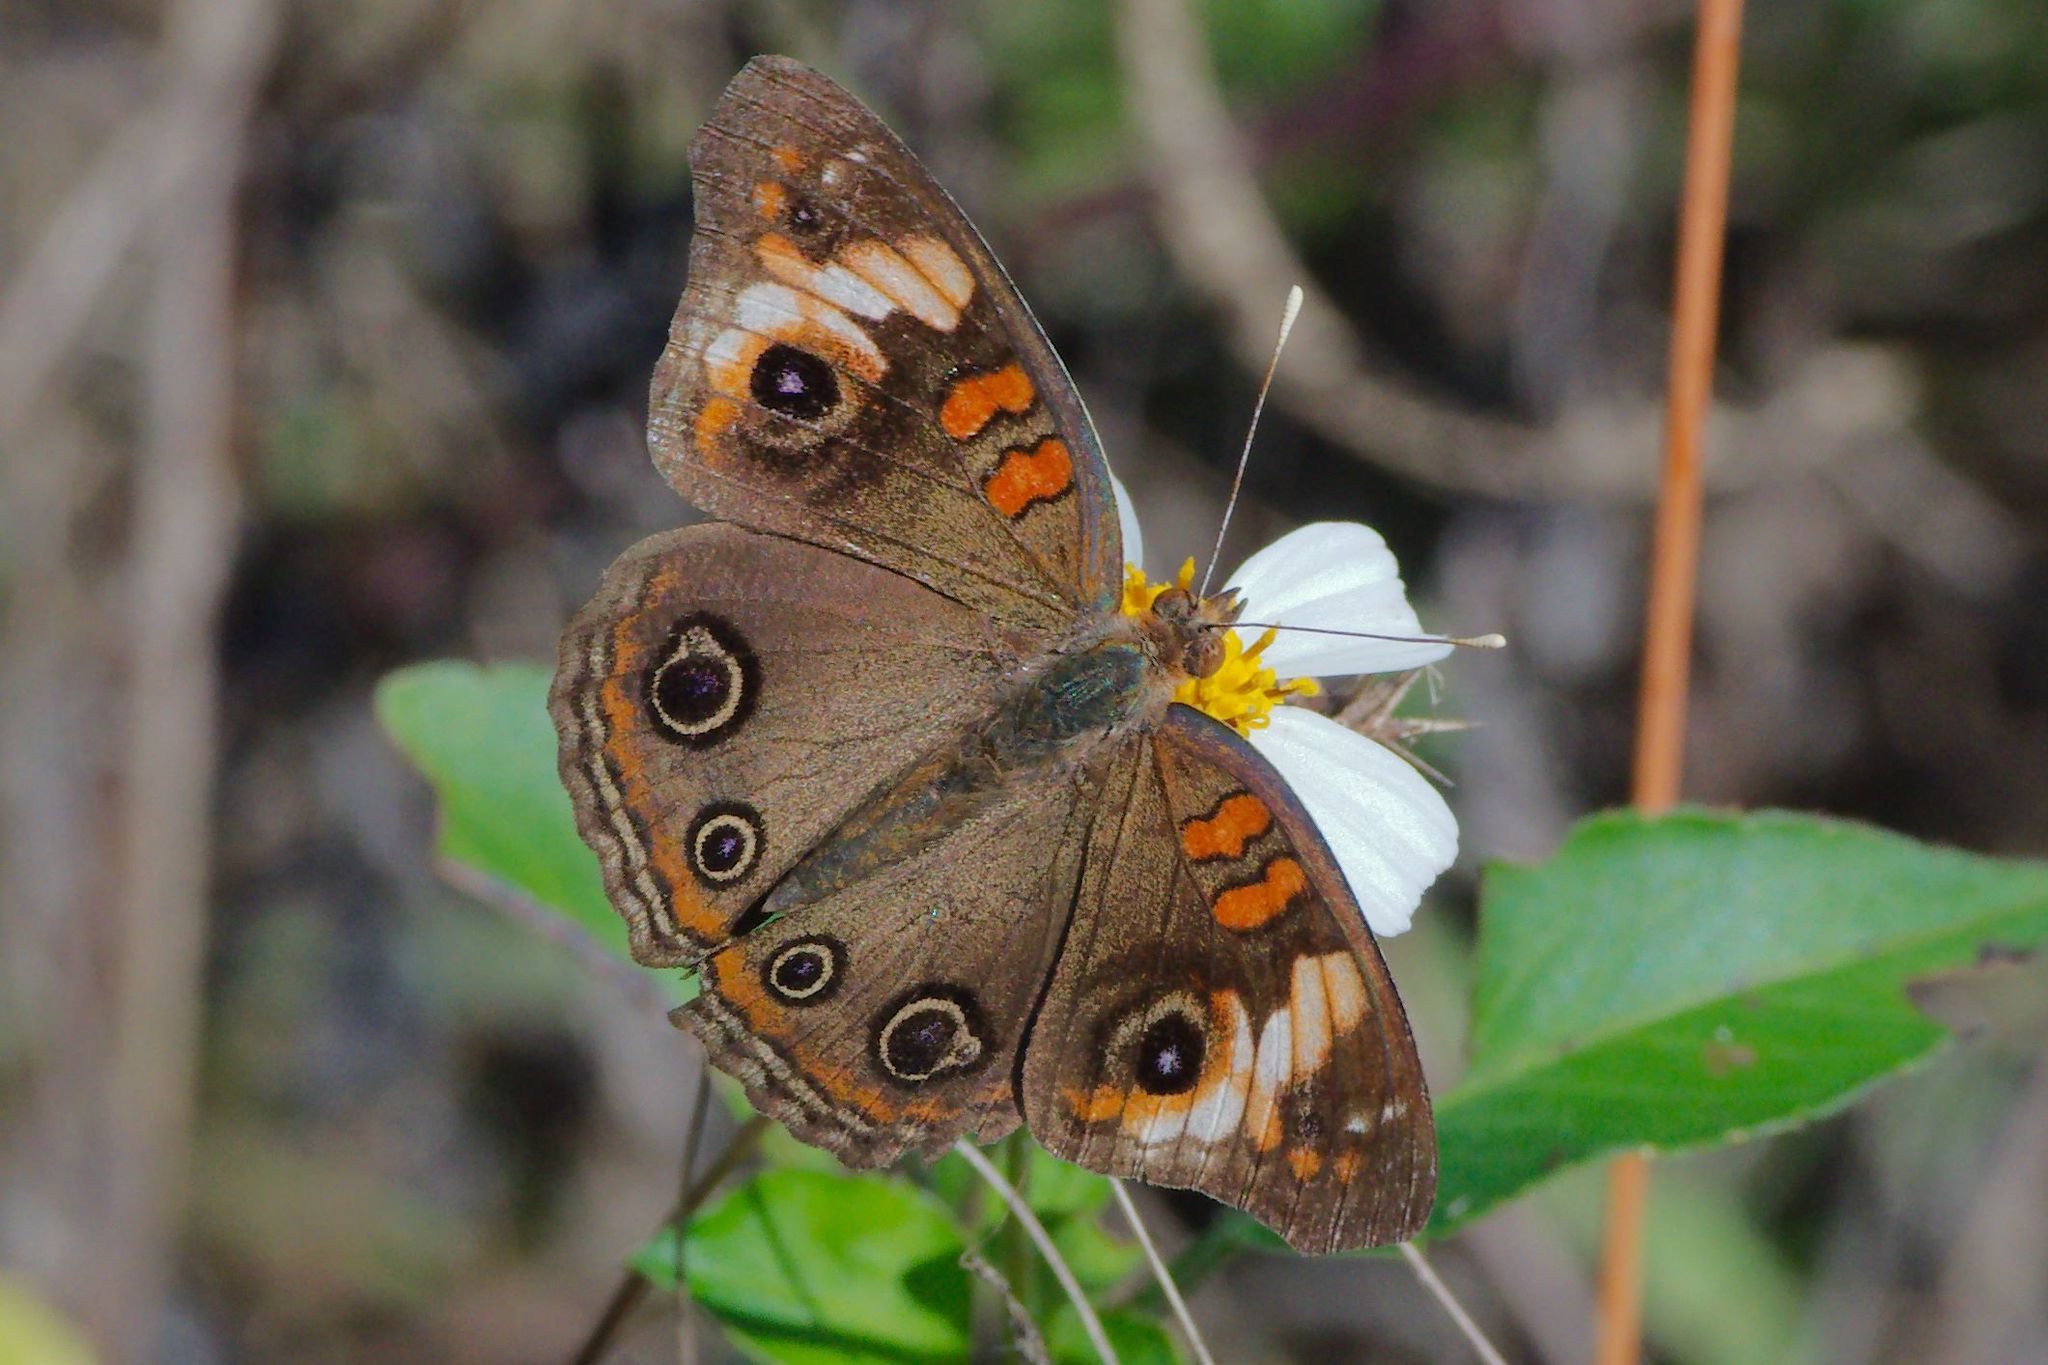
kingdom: Animalia
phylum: Arthropoda
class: Insecta
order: Lepidoptera
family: Nymphalidae
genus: Junonia
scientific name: Junonia lavinia
